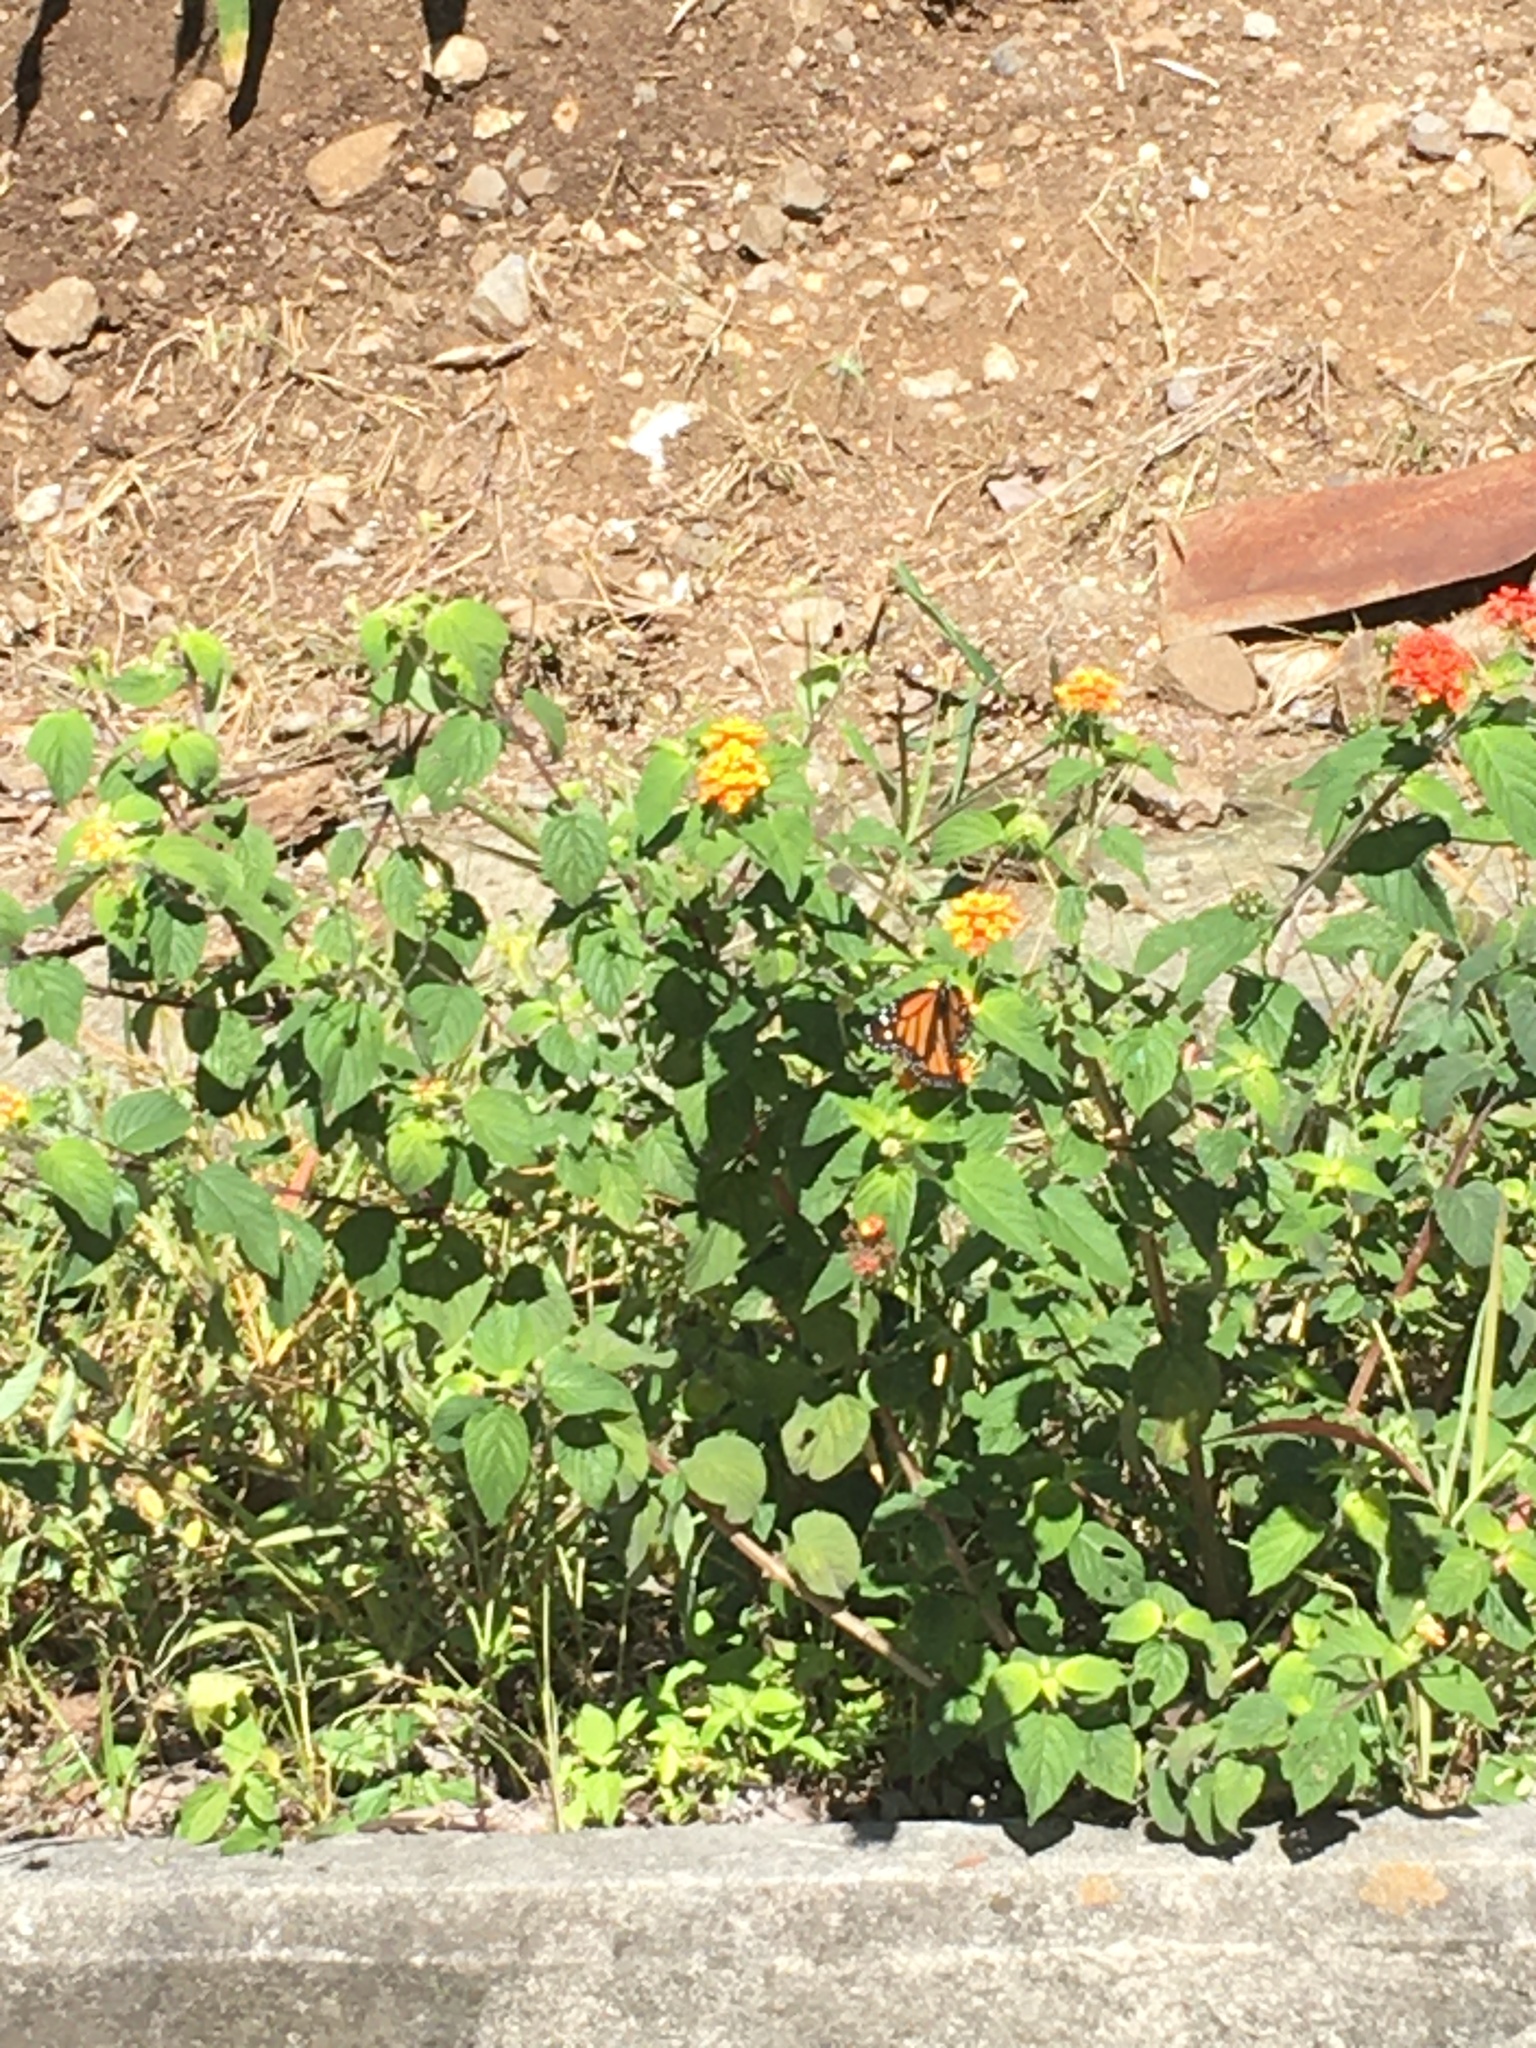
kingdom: Animalia
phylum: Arthropoda
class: Insecta
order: Lepidoptera
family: Nymphalidae
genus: Danaus
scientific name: Danaus plexippus
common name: Monarch
